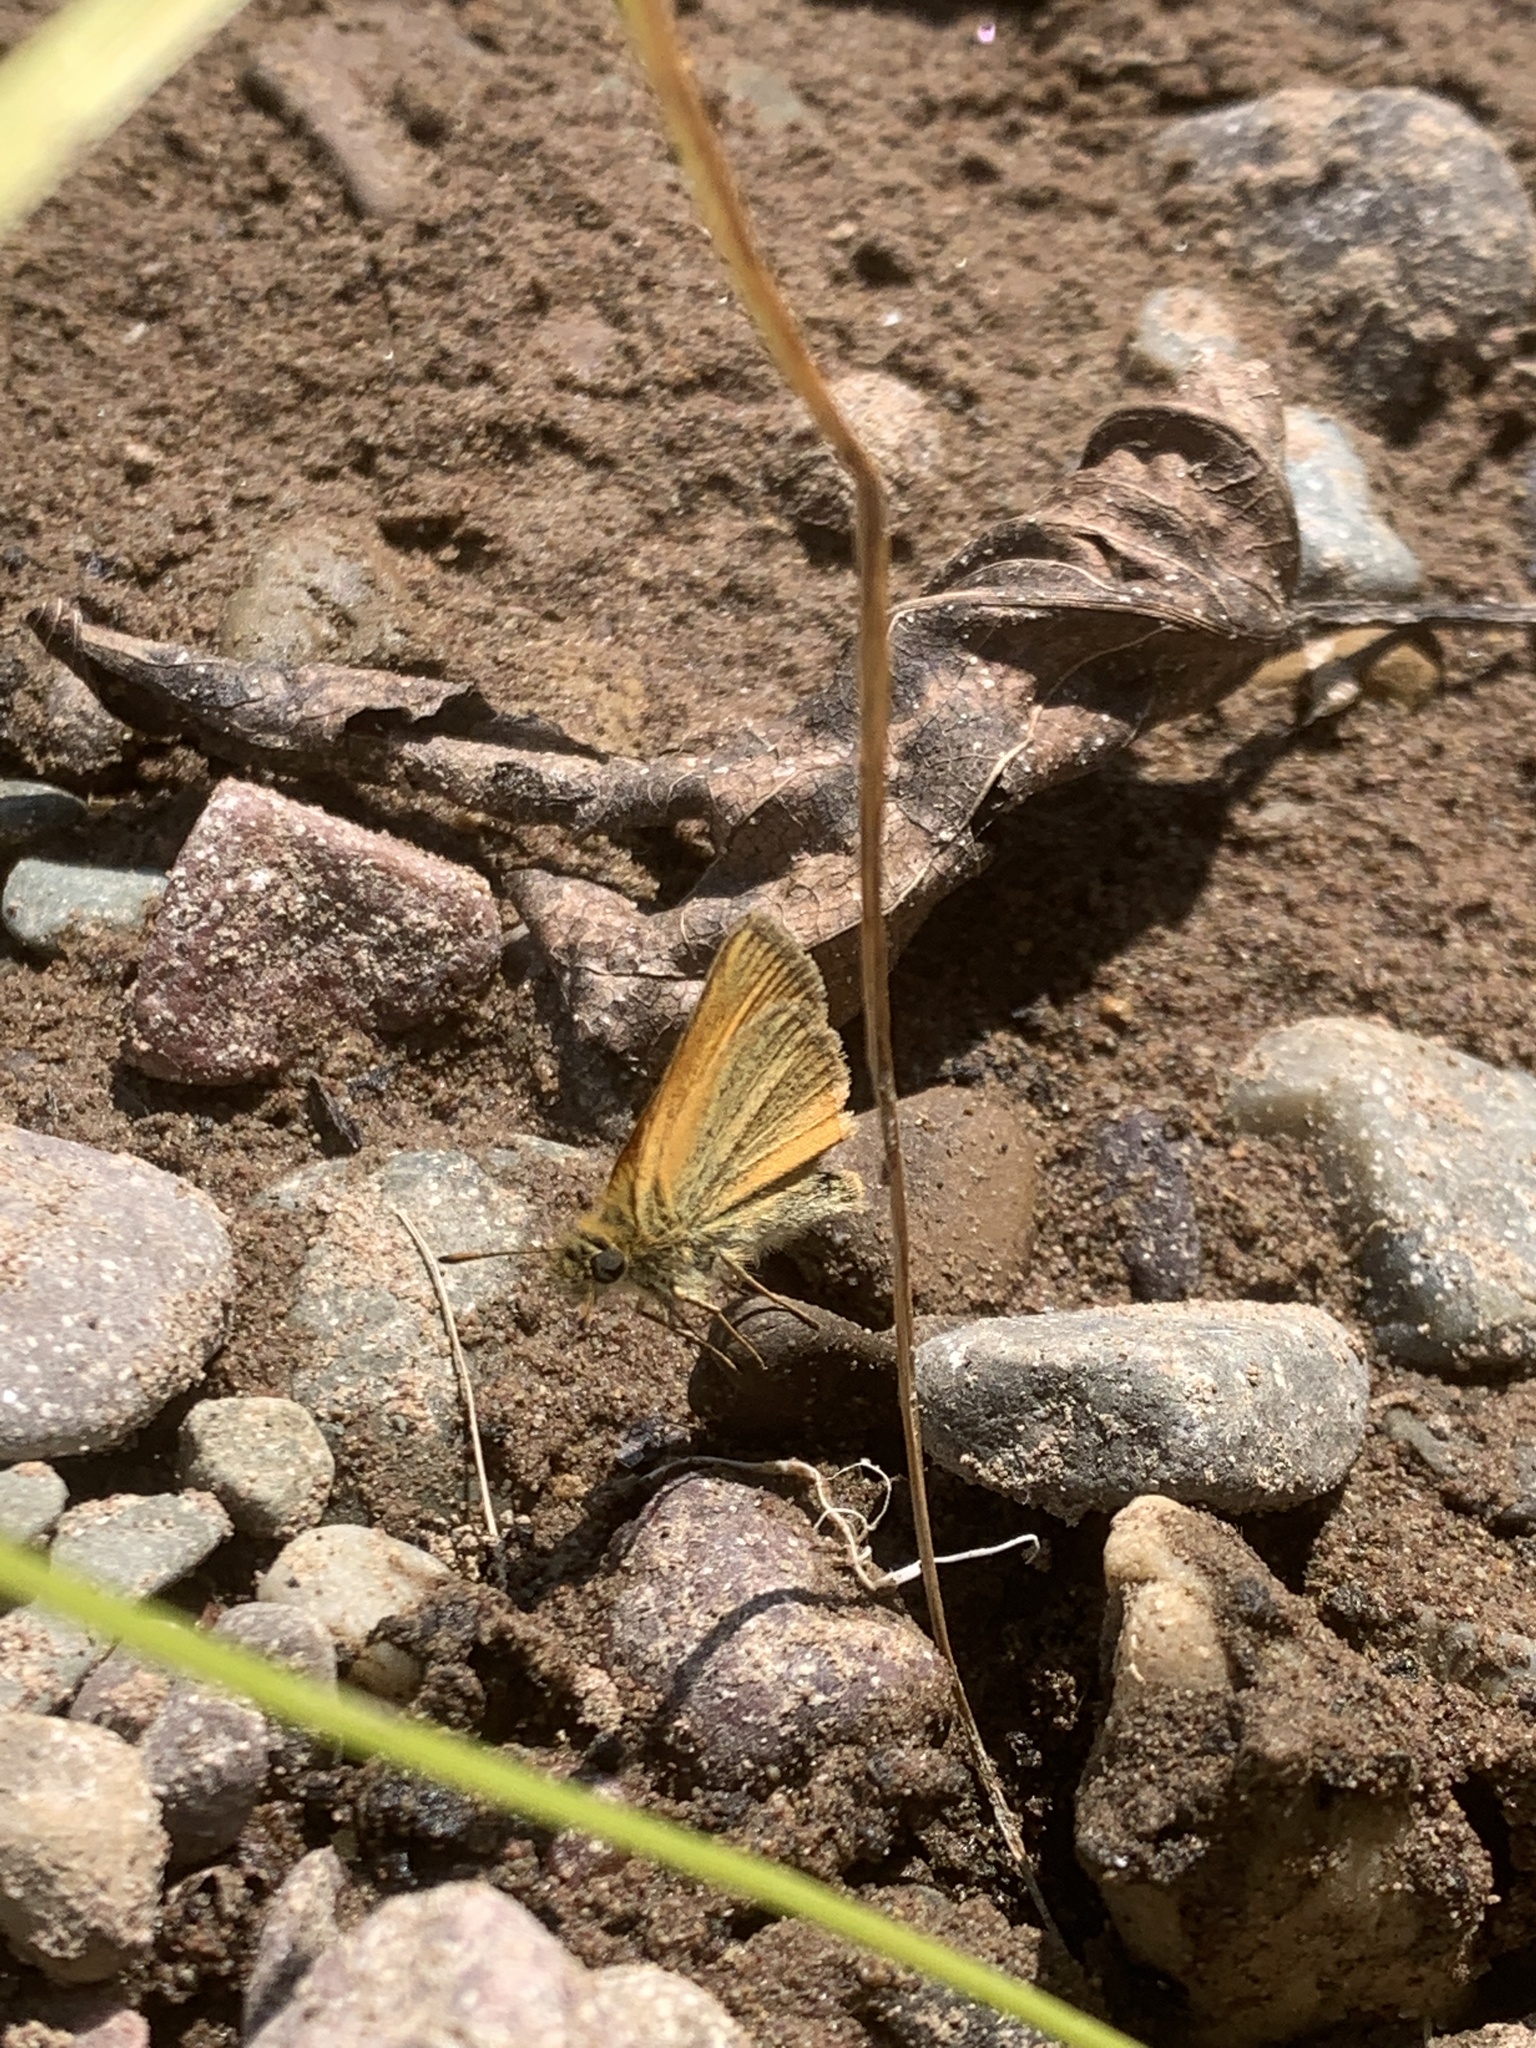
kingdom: Animalia
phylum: Arthropoda
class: Insecta
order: Lepidoptera
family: Hesperiidae
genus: Thymelicus
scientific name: Thymelicus lineola
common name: Essex skipper
